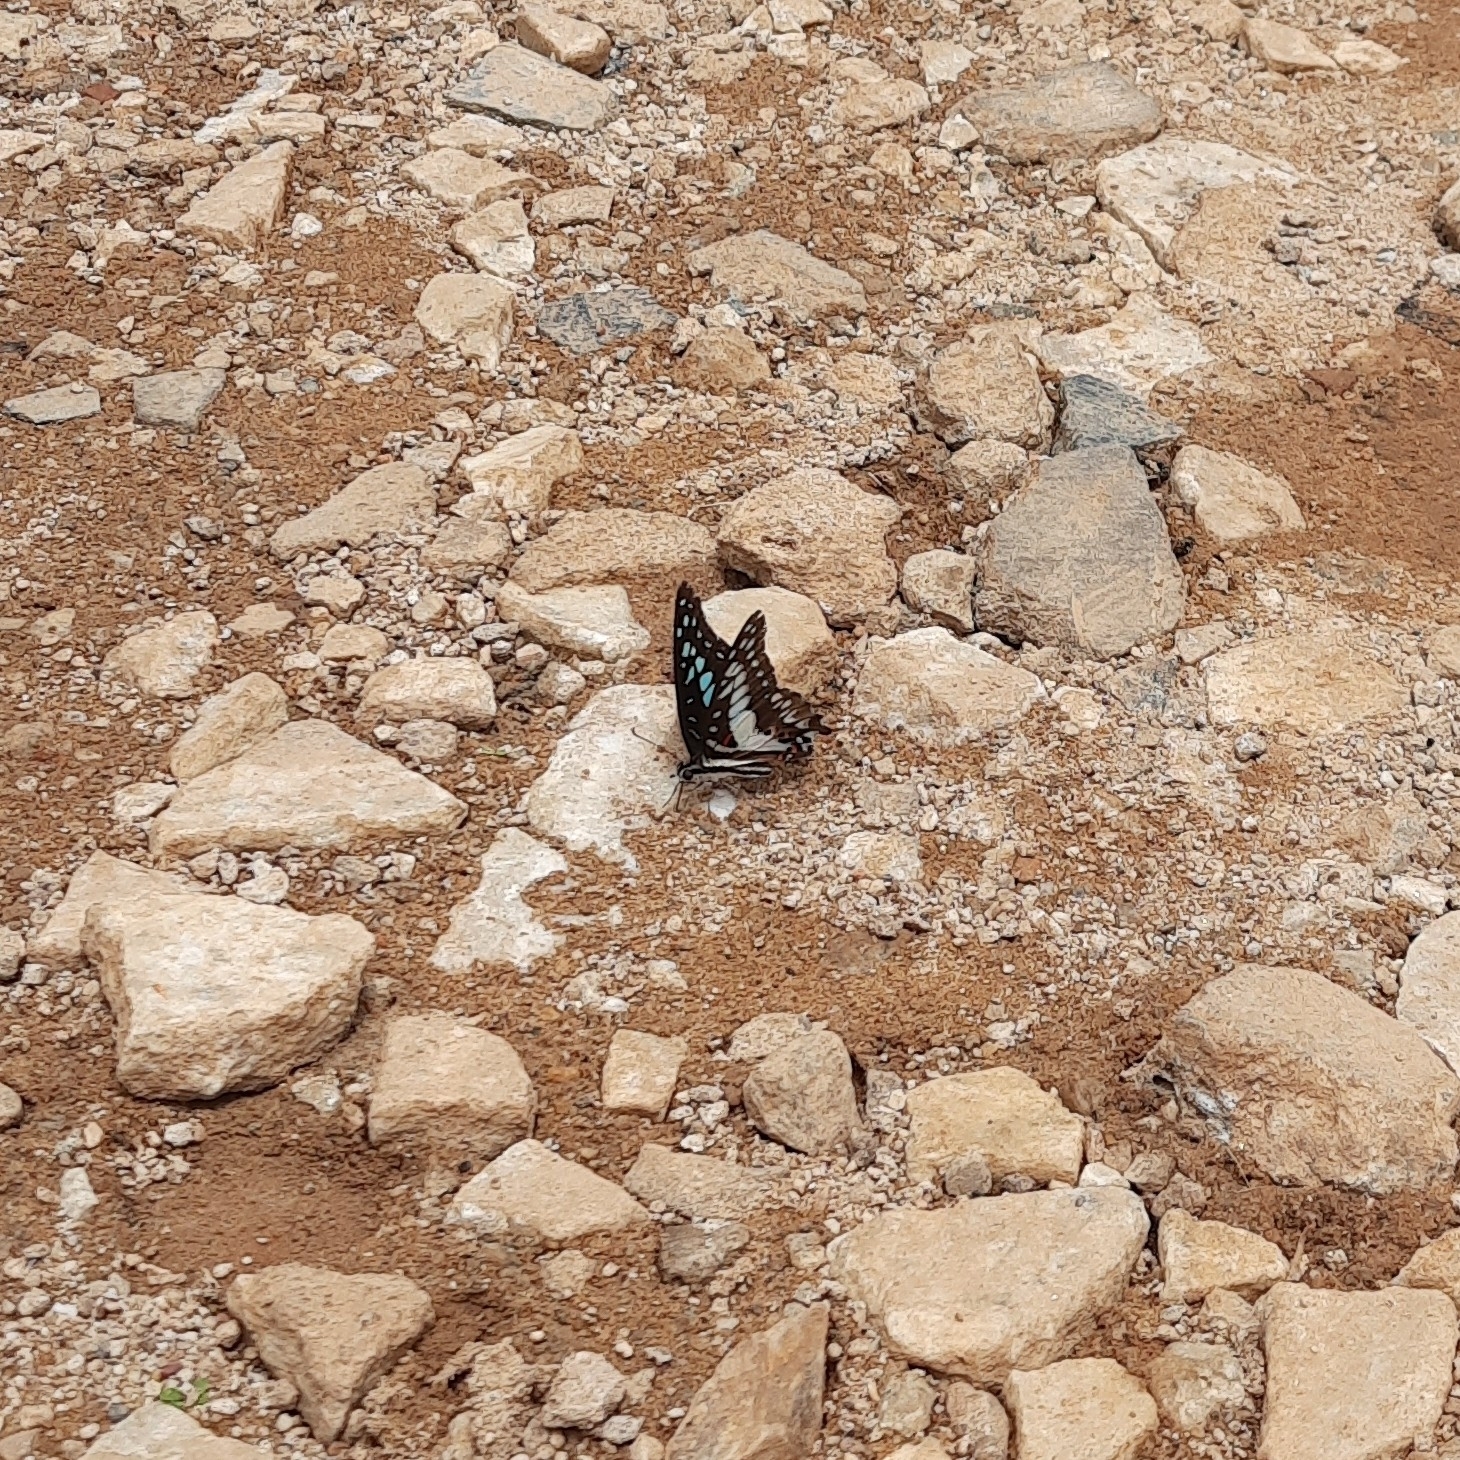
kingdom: Animalia
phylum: Arthropoda
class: Insecta
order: Lepidoptera
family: Papilionidae
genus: Graphium
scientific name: Graphium doson
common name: Common jay
